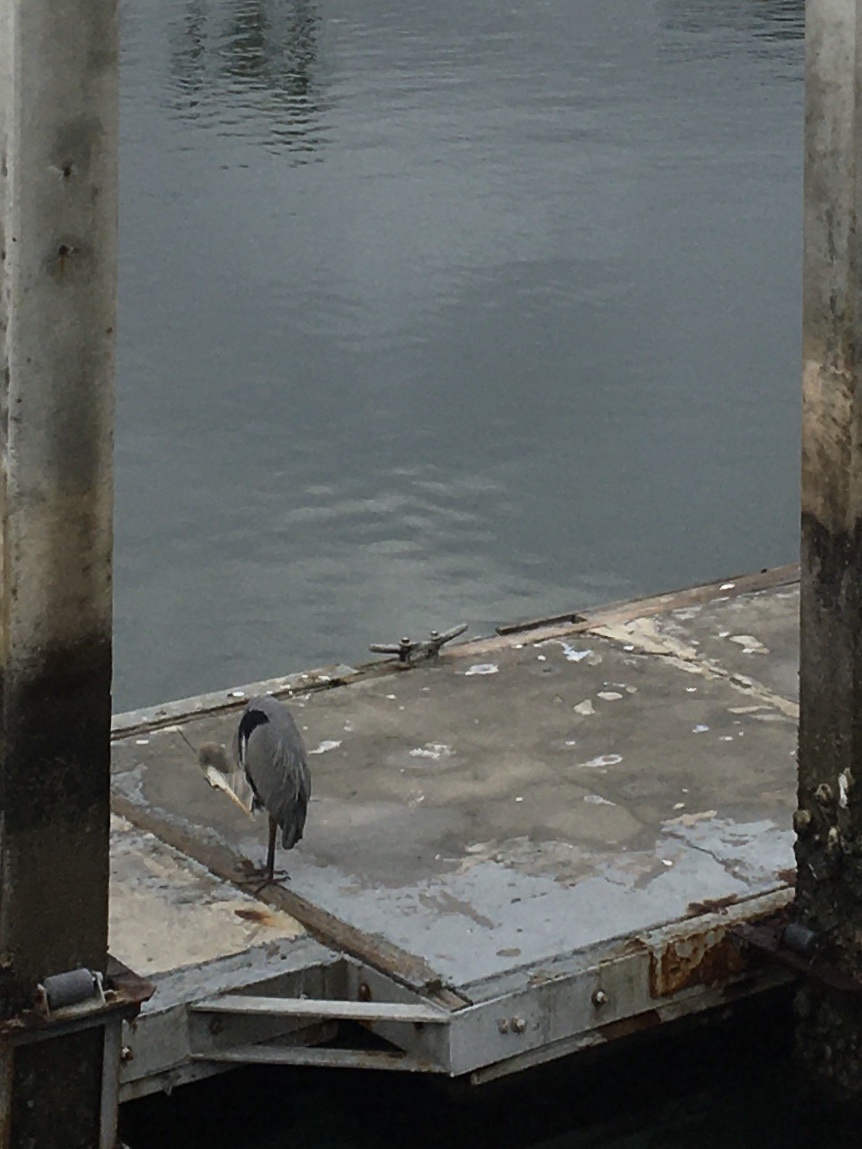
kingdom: Animalia
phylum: Chordata
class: Aves
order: Pelecaniformes
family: Ardeidae
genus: Ardea
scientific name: Ardea herodias
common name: Great blue heron
